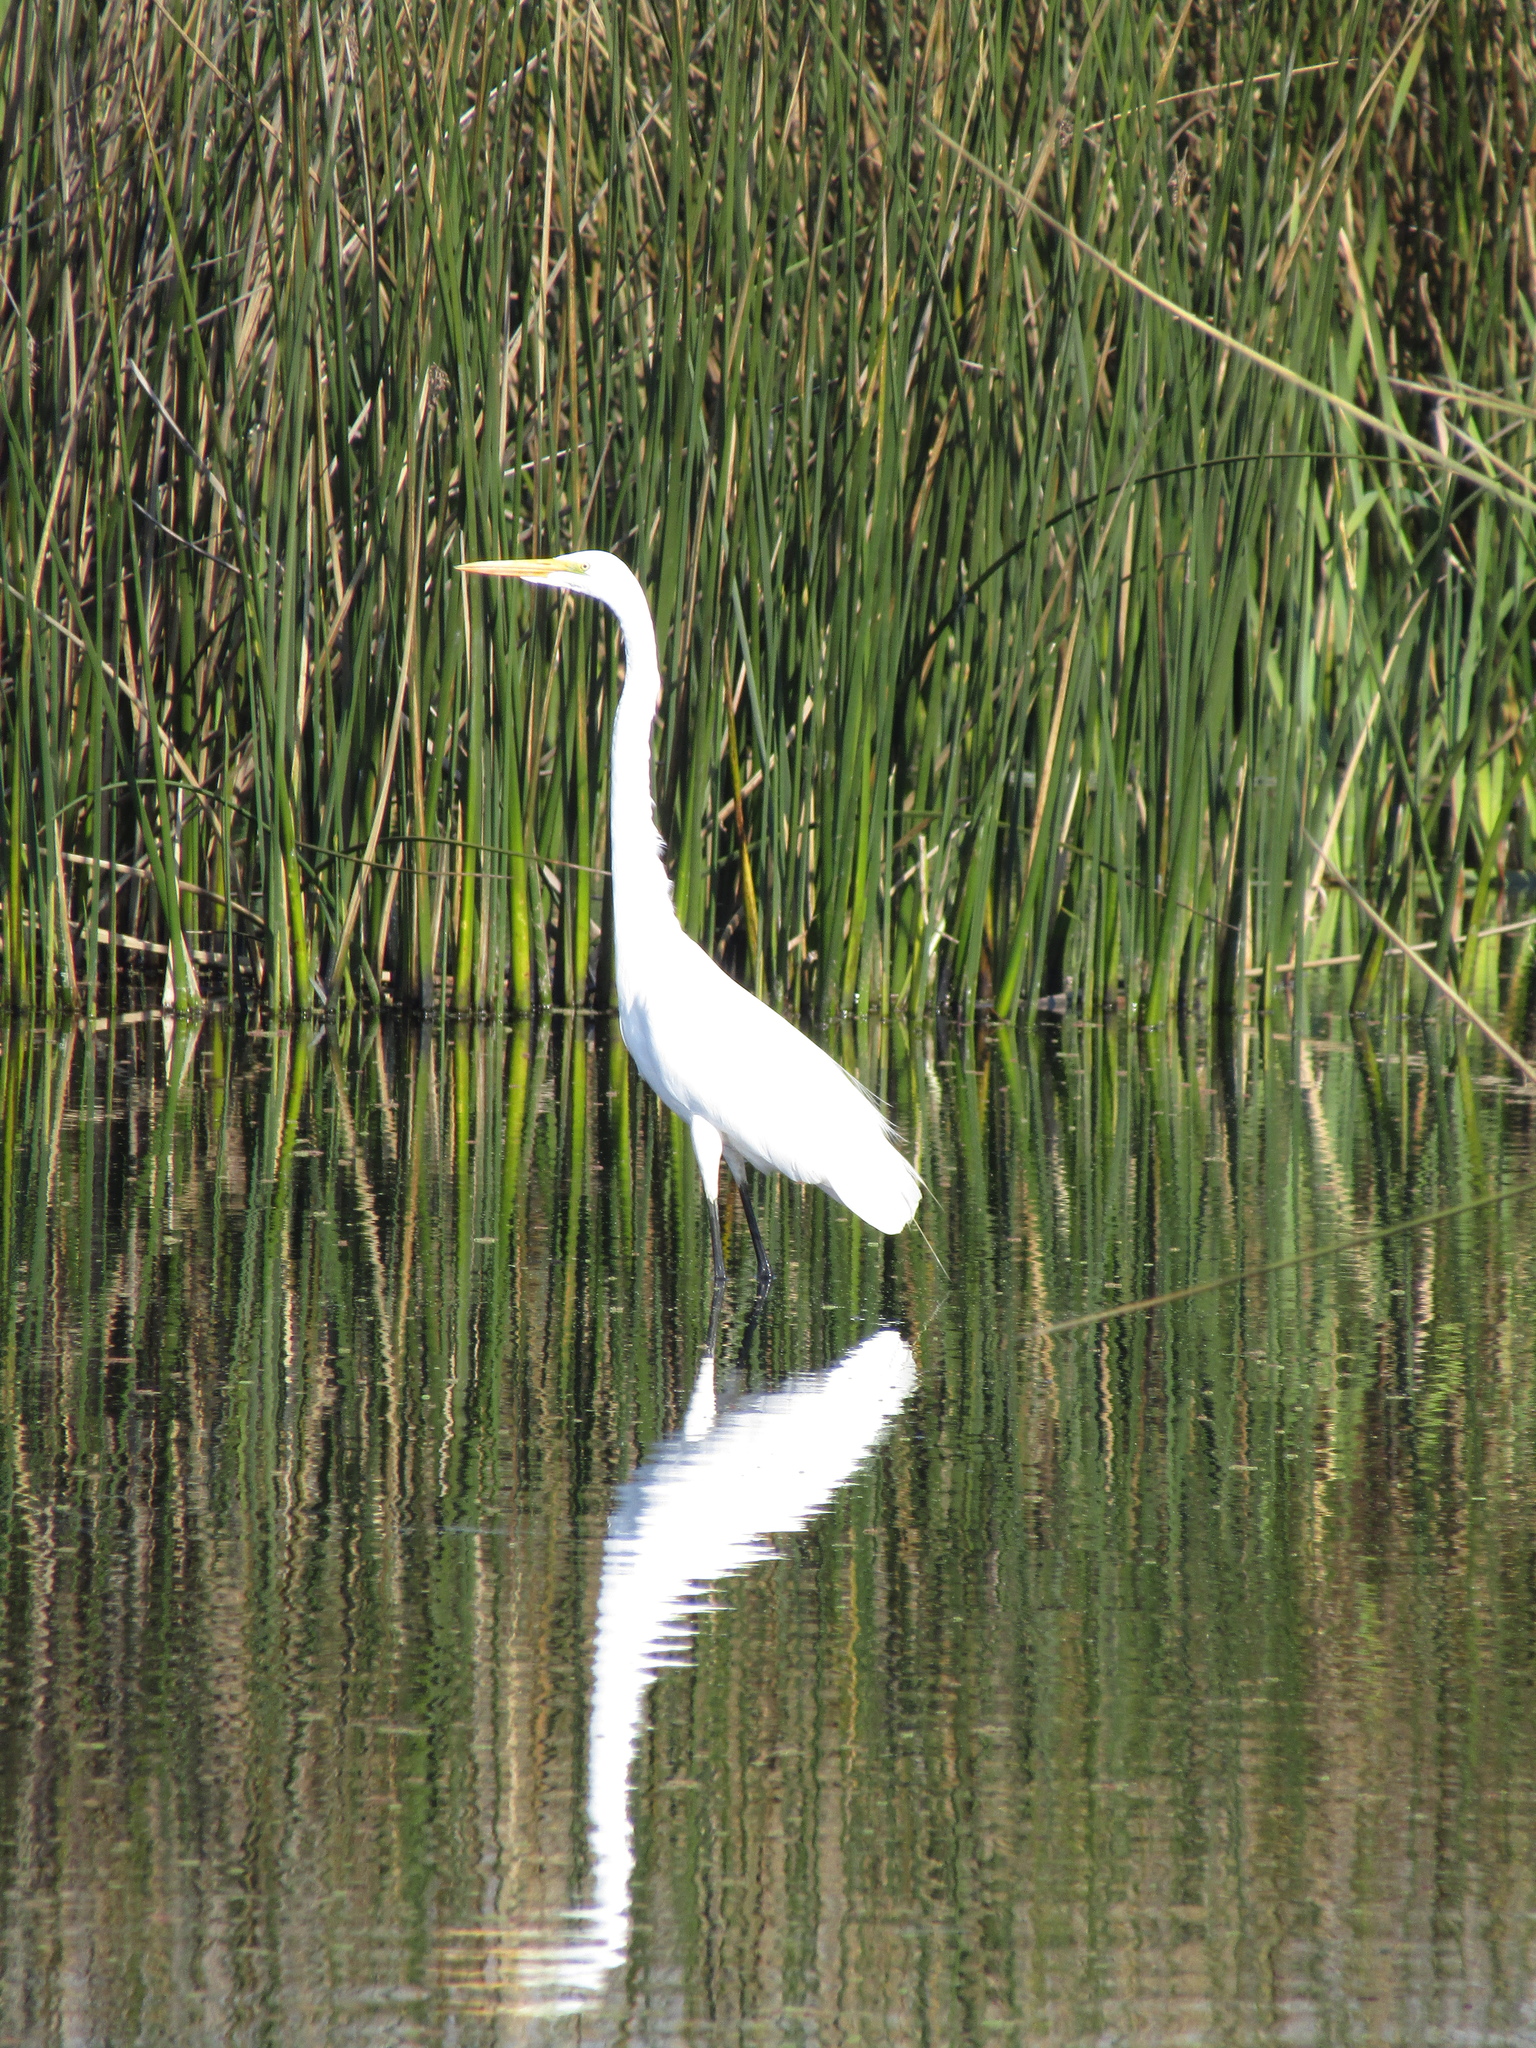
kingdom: Animalia
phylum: Chordata
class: Aves
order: Pelecaniformes
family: Ardeidae
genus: Ardea
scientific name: Ardea alba
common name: Great egret
